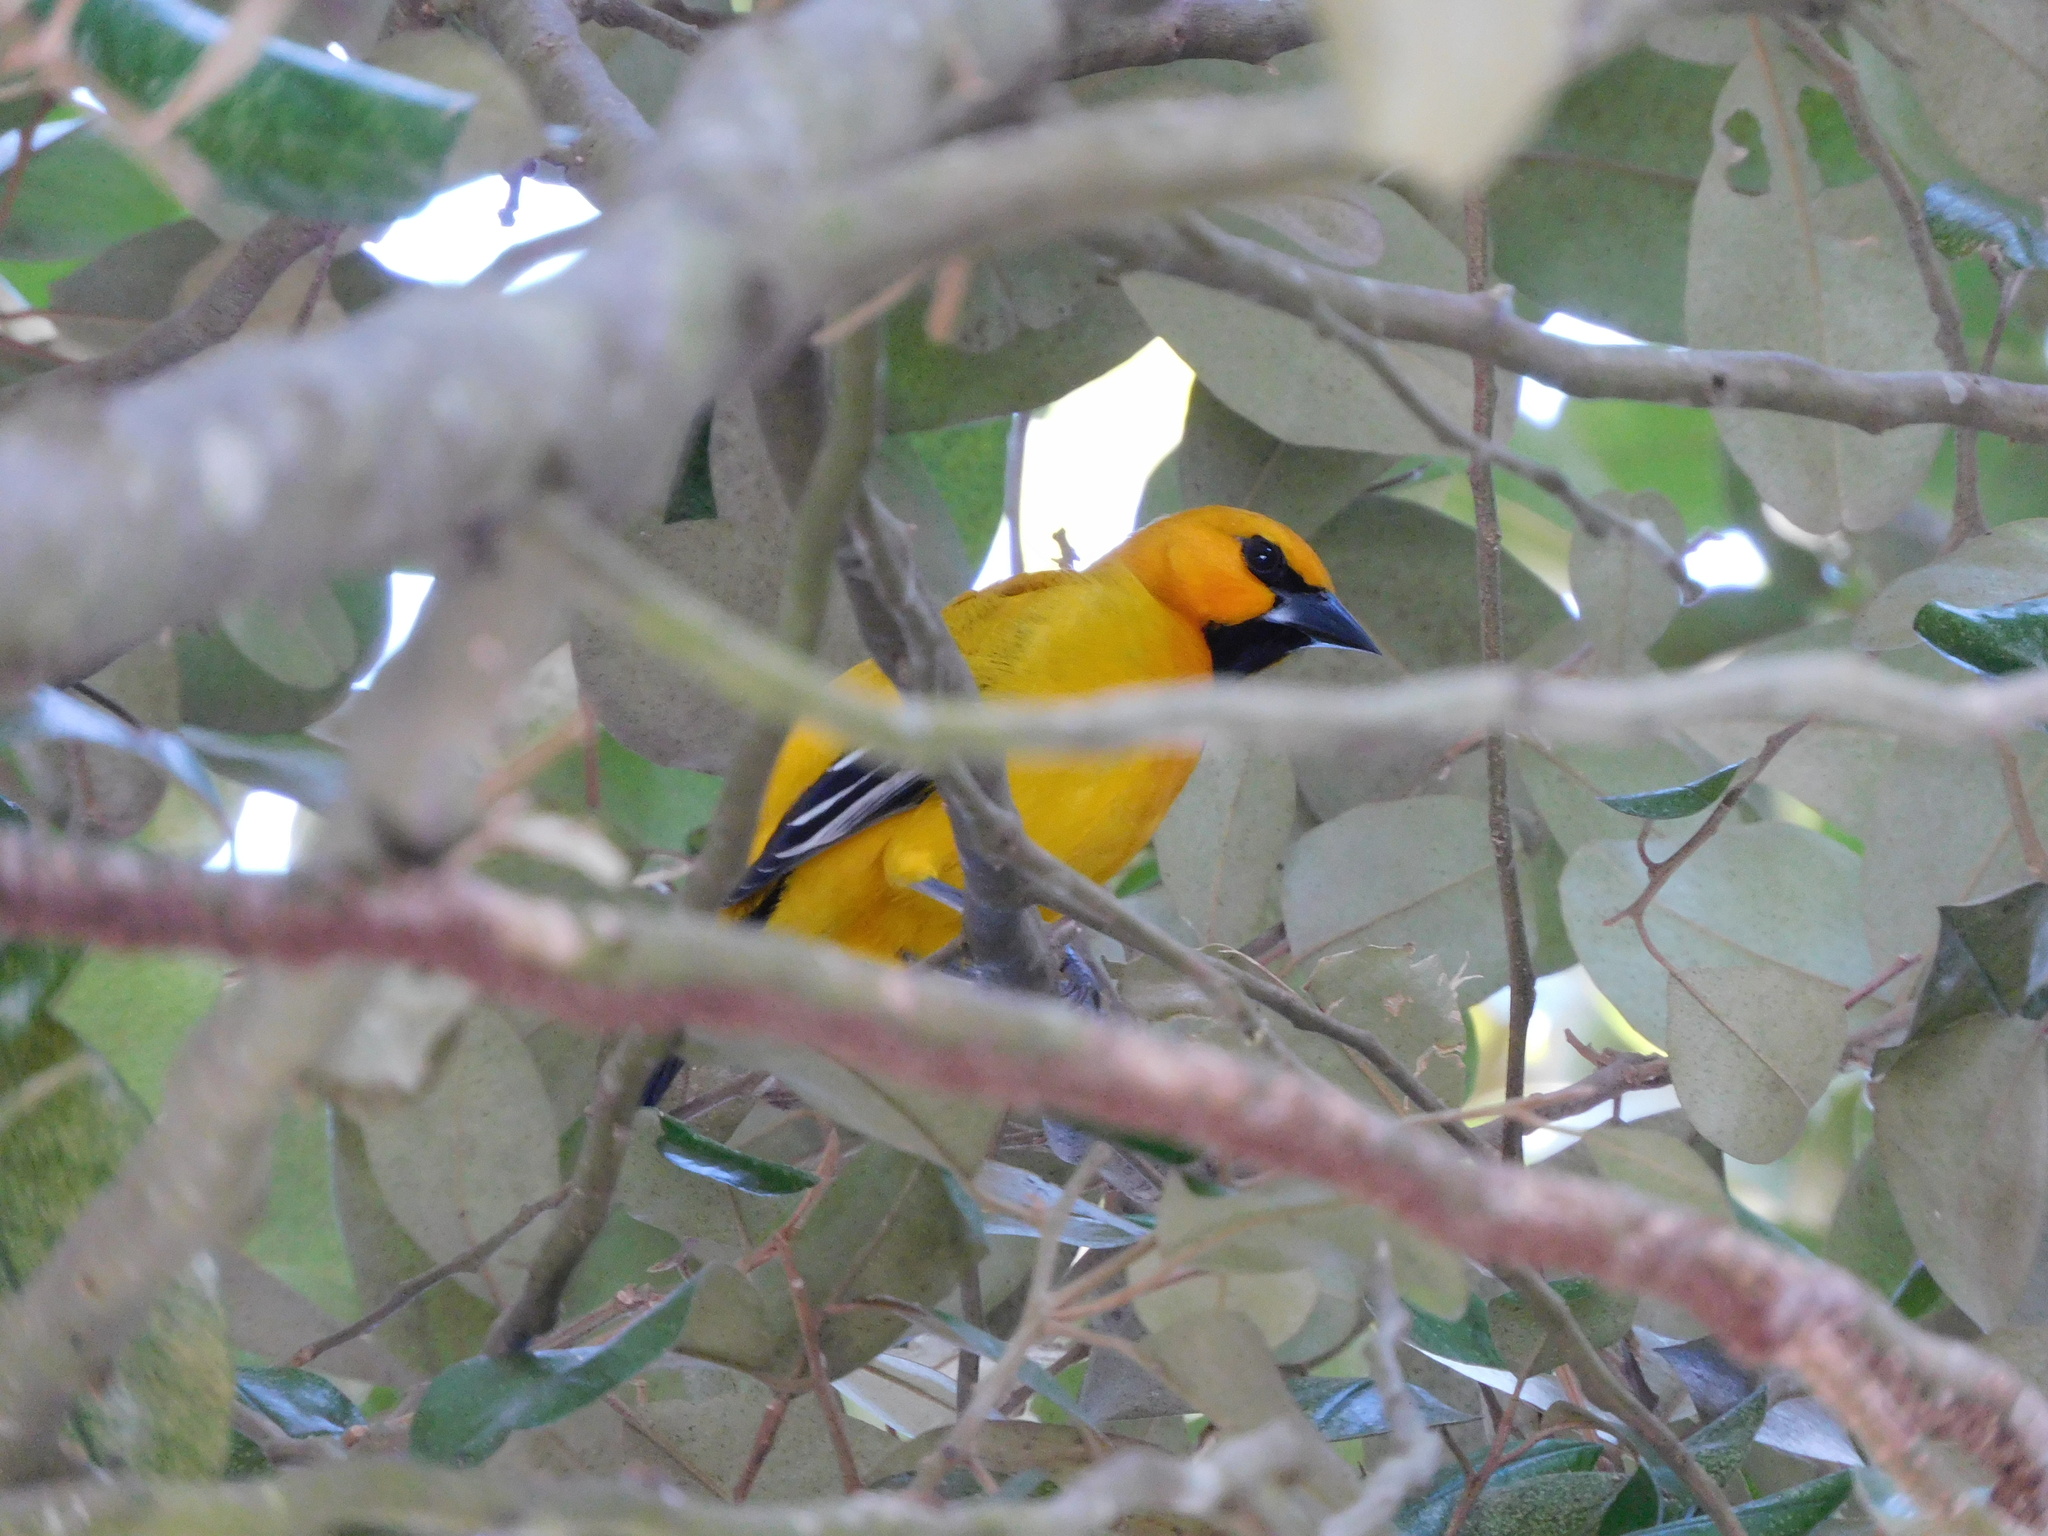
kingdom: Animalia
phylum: Chordata
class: Aves
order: Passeriformes
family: Icteridae
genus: Icterus
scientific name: Icterus nigrogularis
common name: Yellow oriole
